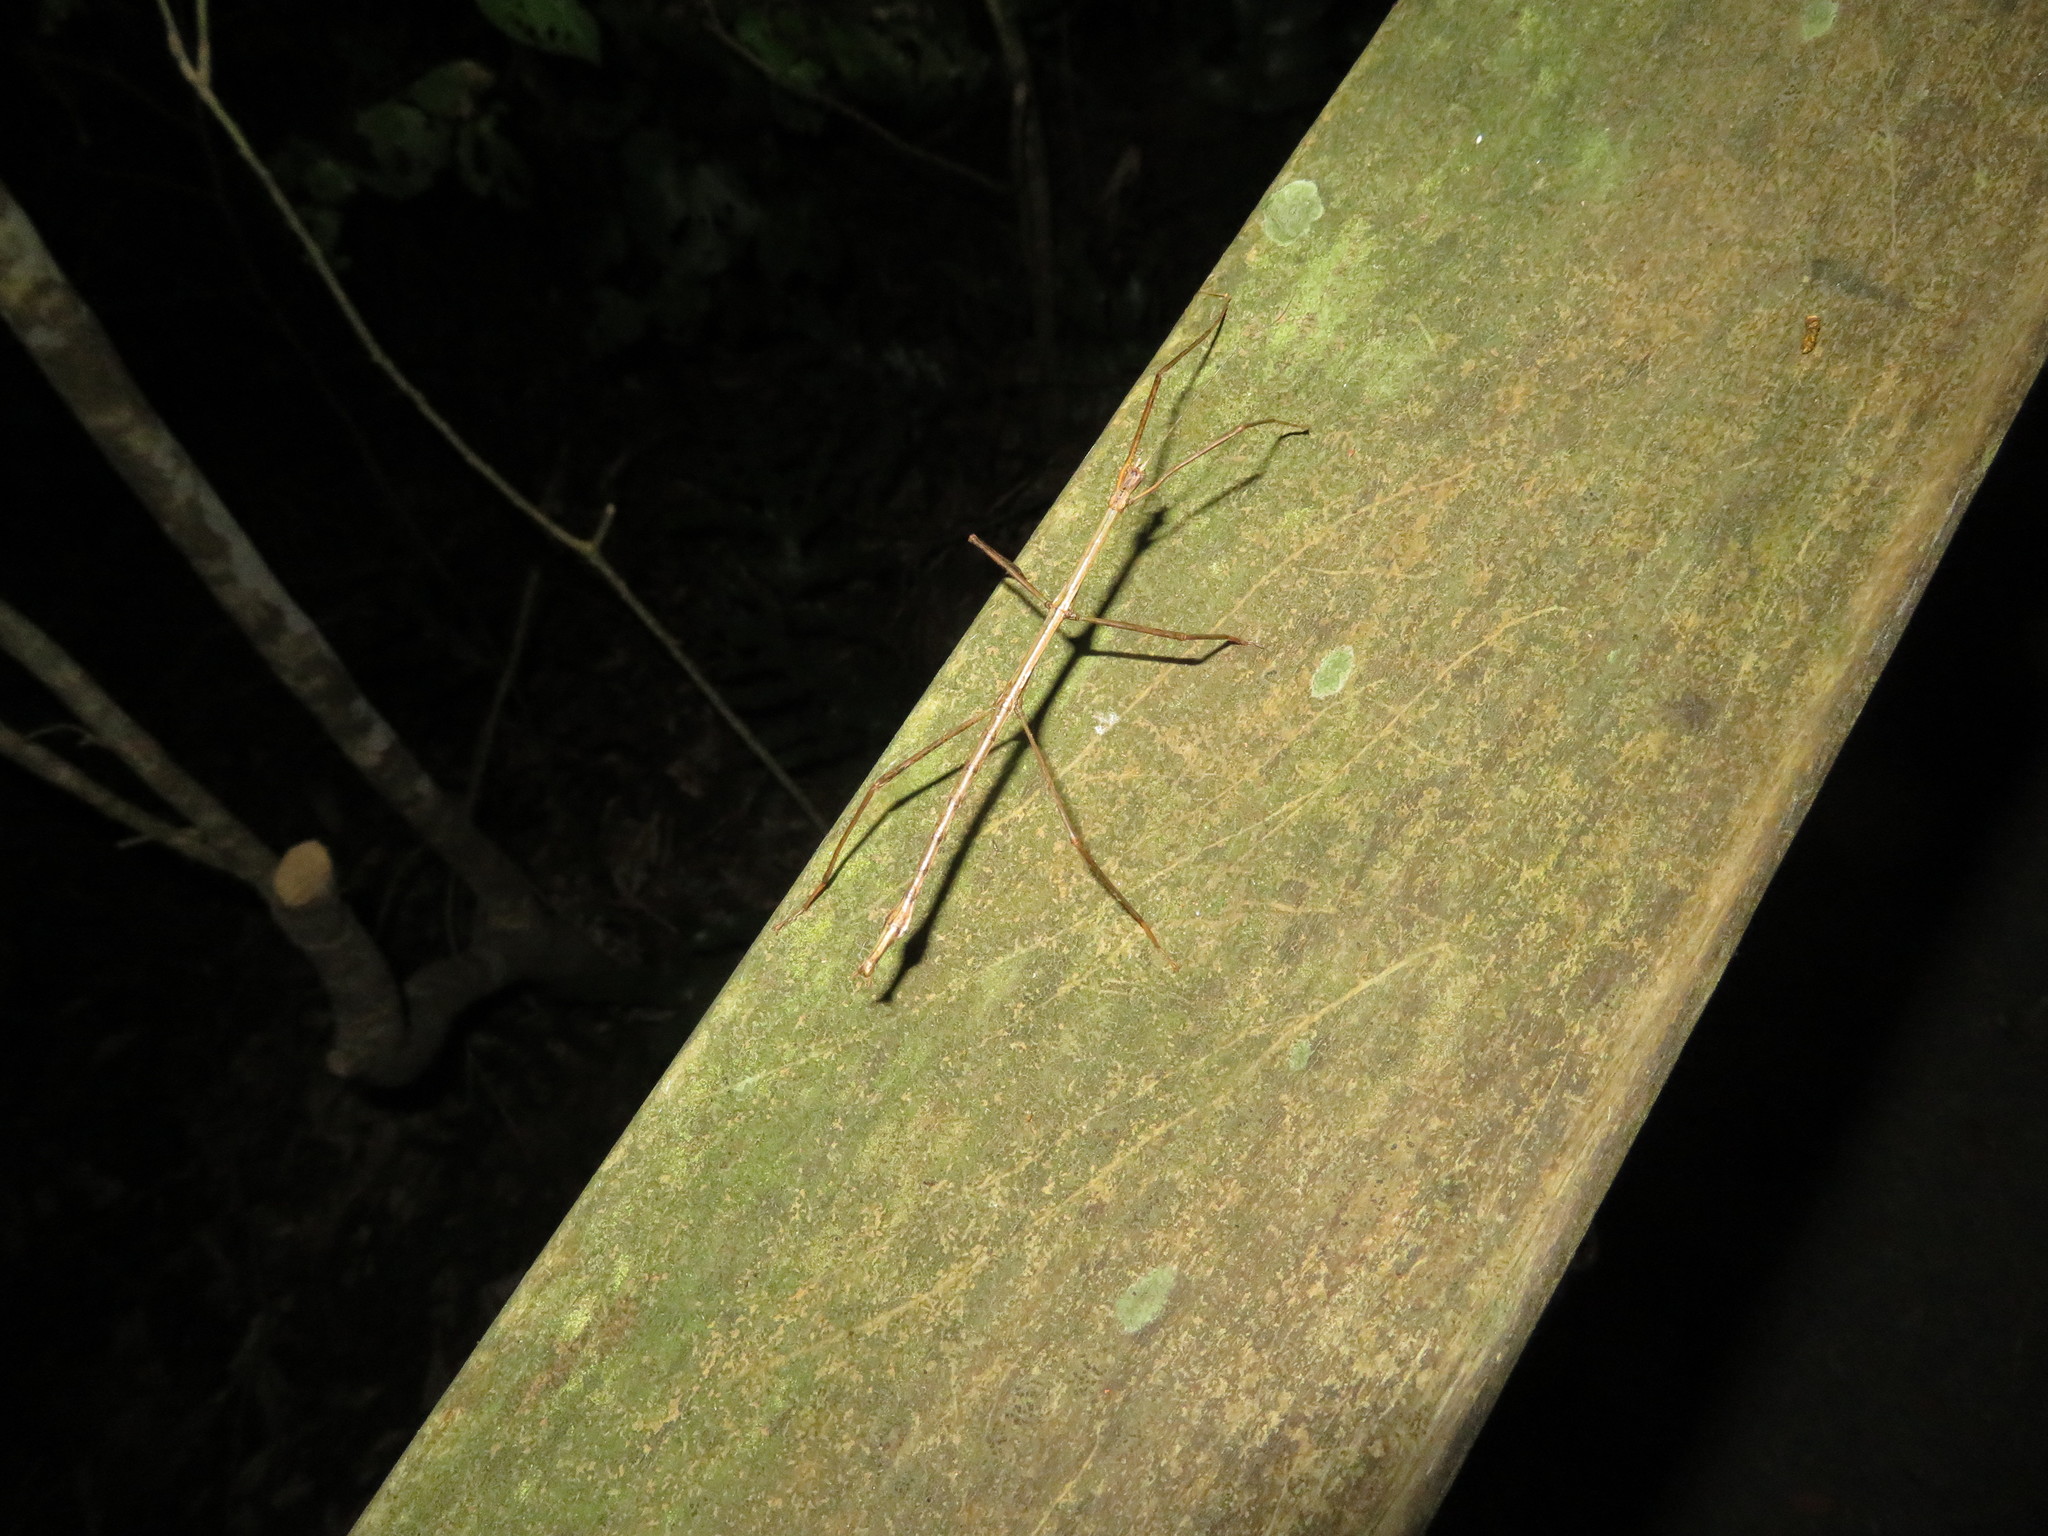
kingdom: Animalia
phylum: Arthropoda
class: Insecta
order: Phasmida
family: Phasmatidae
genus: Clitarchus
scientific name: Clitarchus hookeri
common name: Smooth stick insect
